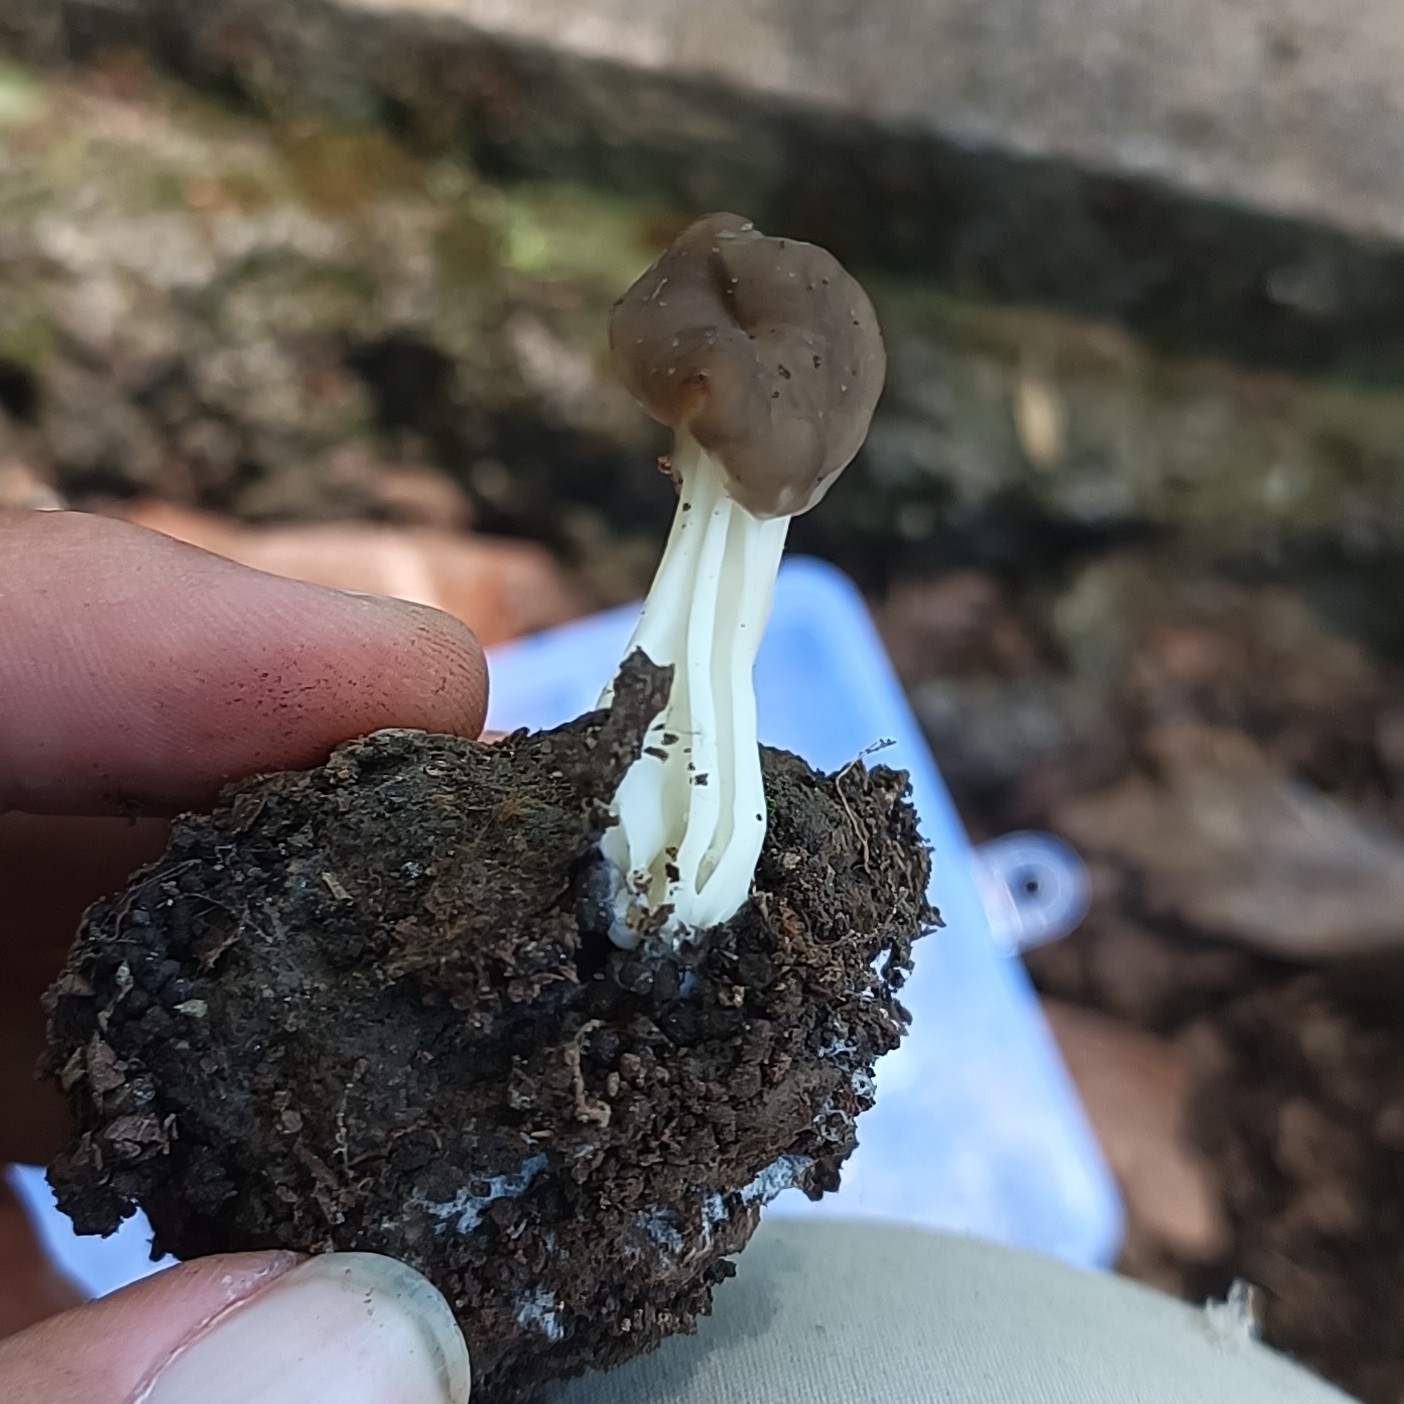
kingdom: Fungi
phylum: Ascomycota
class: Pezizomycetes
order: Pezizales
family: Helvellaceae
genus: Helvella
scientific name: Helvella lacunosa
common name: Elfin saddle
